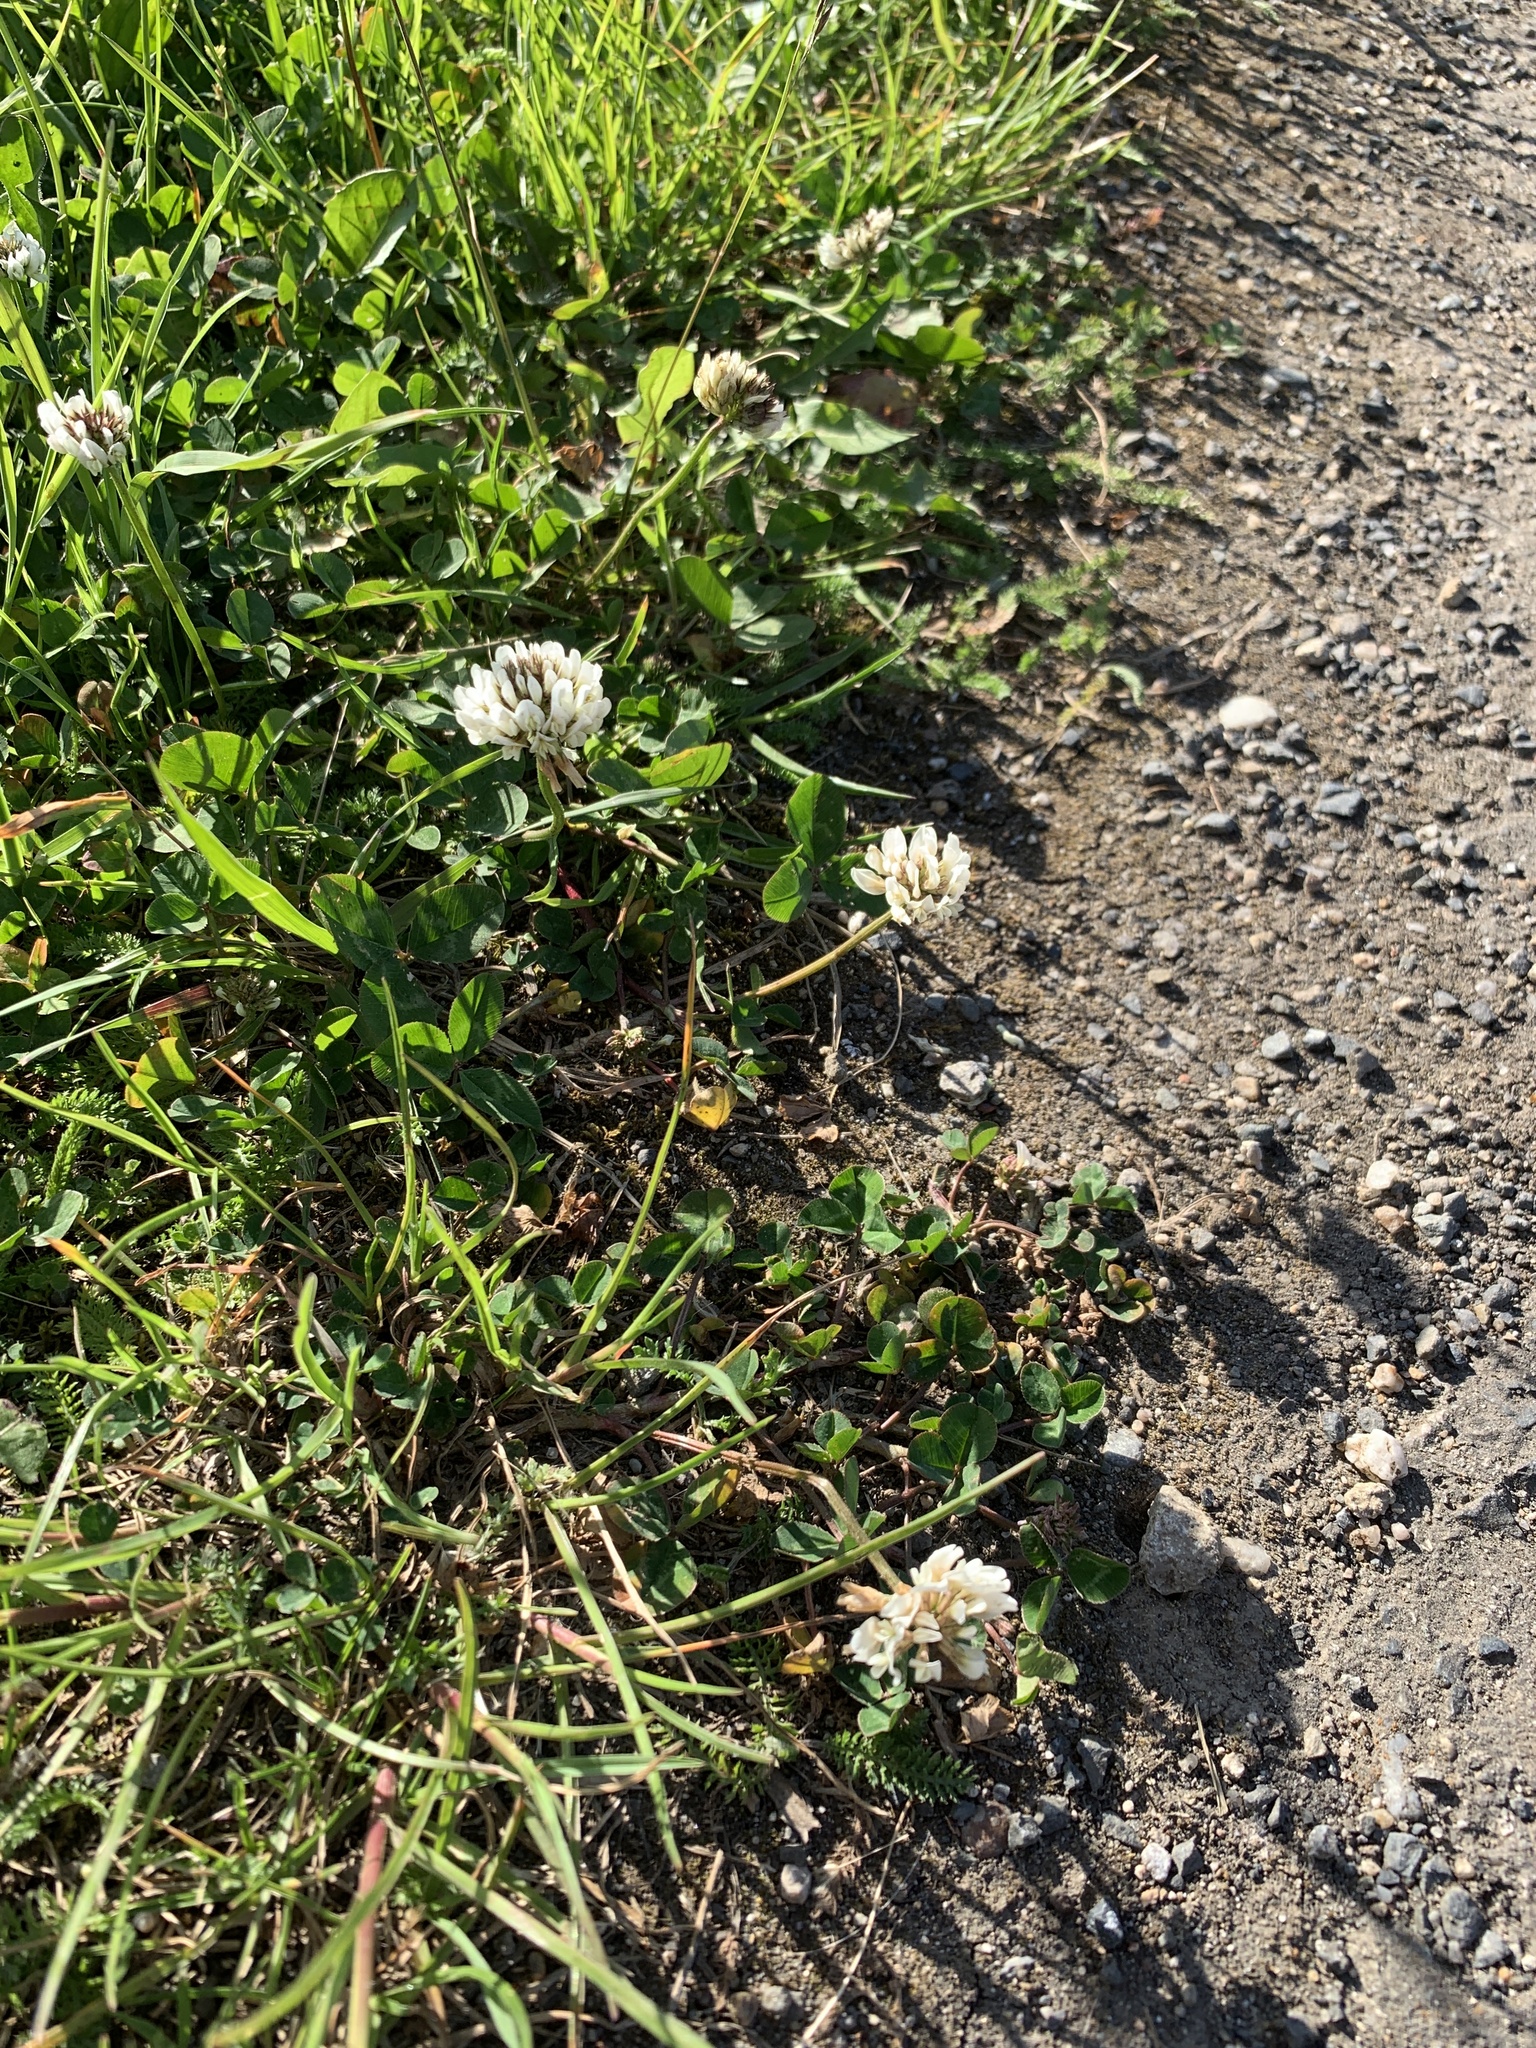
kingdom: Plantae
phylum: Tracheophyta
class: Magnoliopsida
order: Fabales
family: Fabaceae
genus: Trifolium
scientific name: Trifolium repens
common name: White clover
